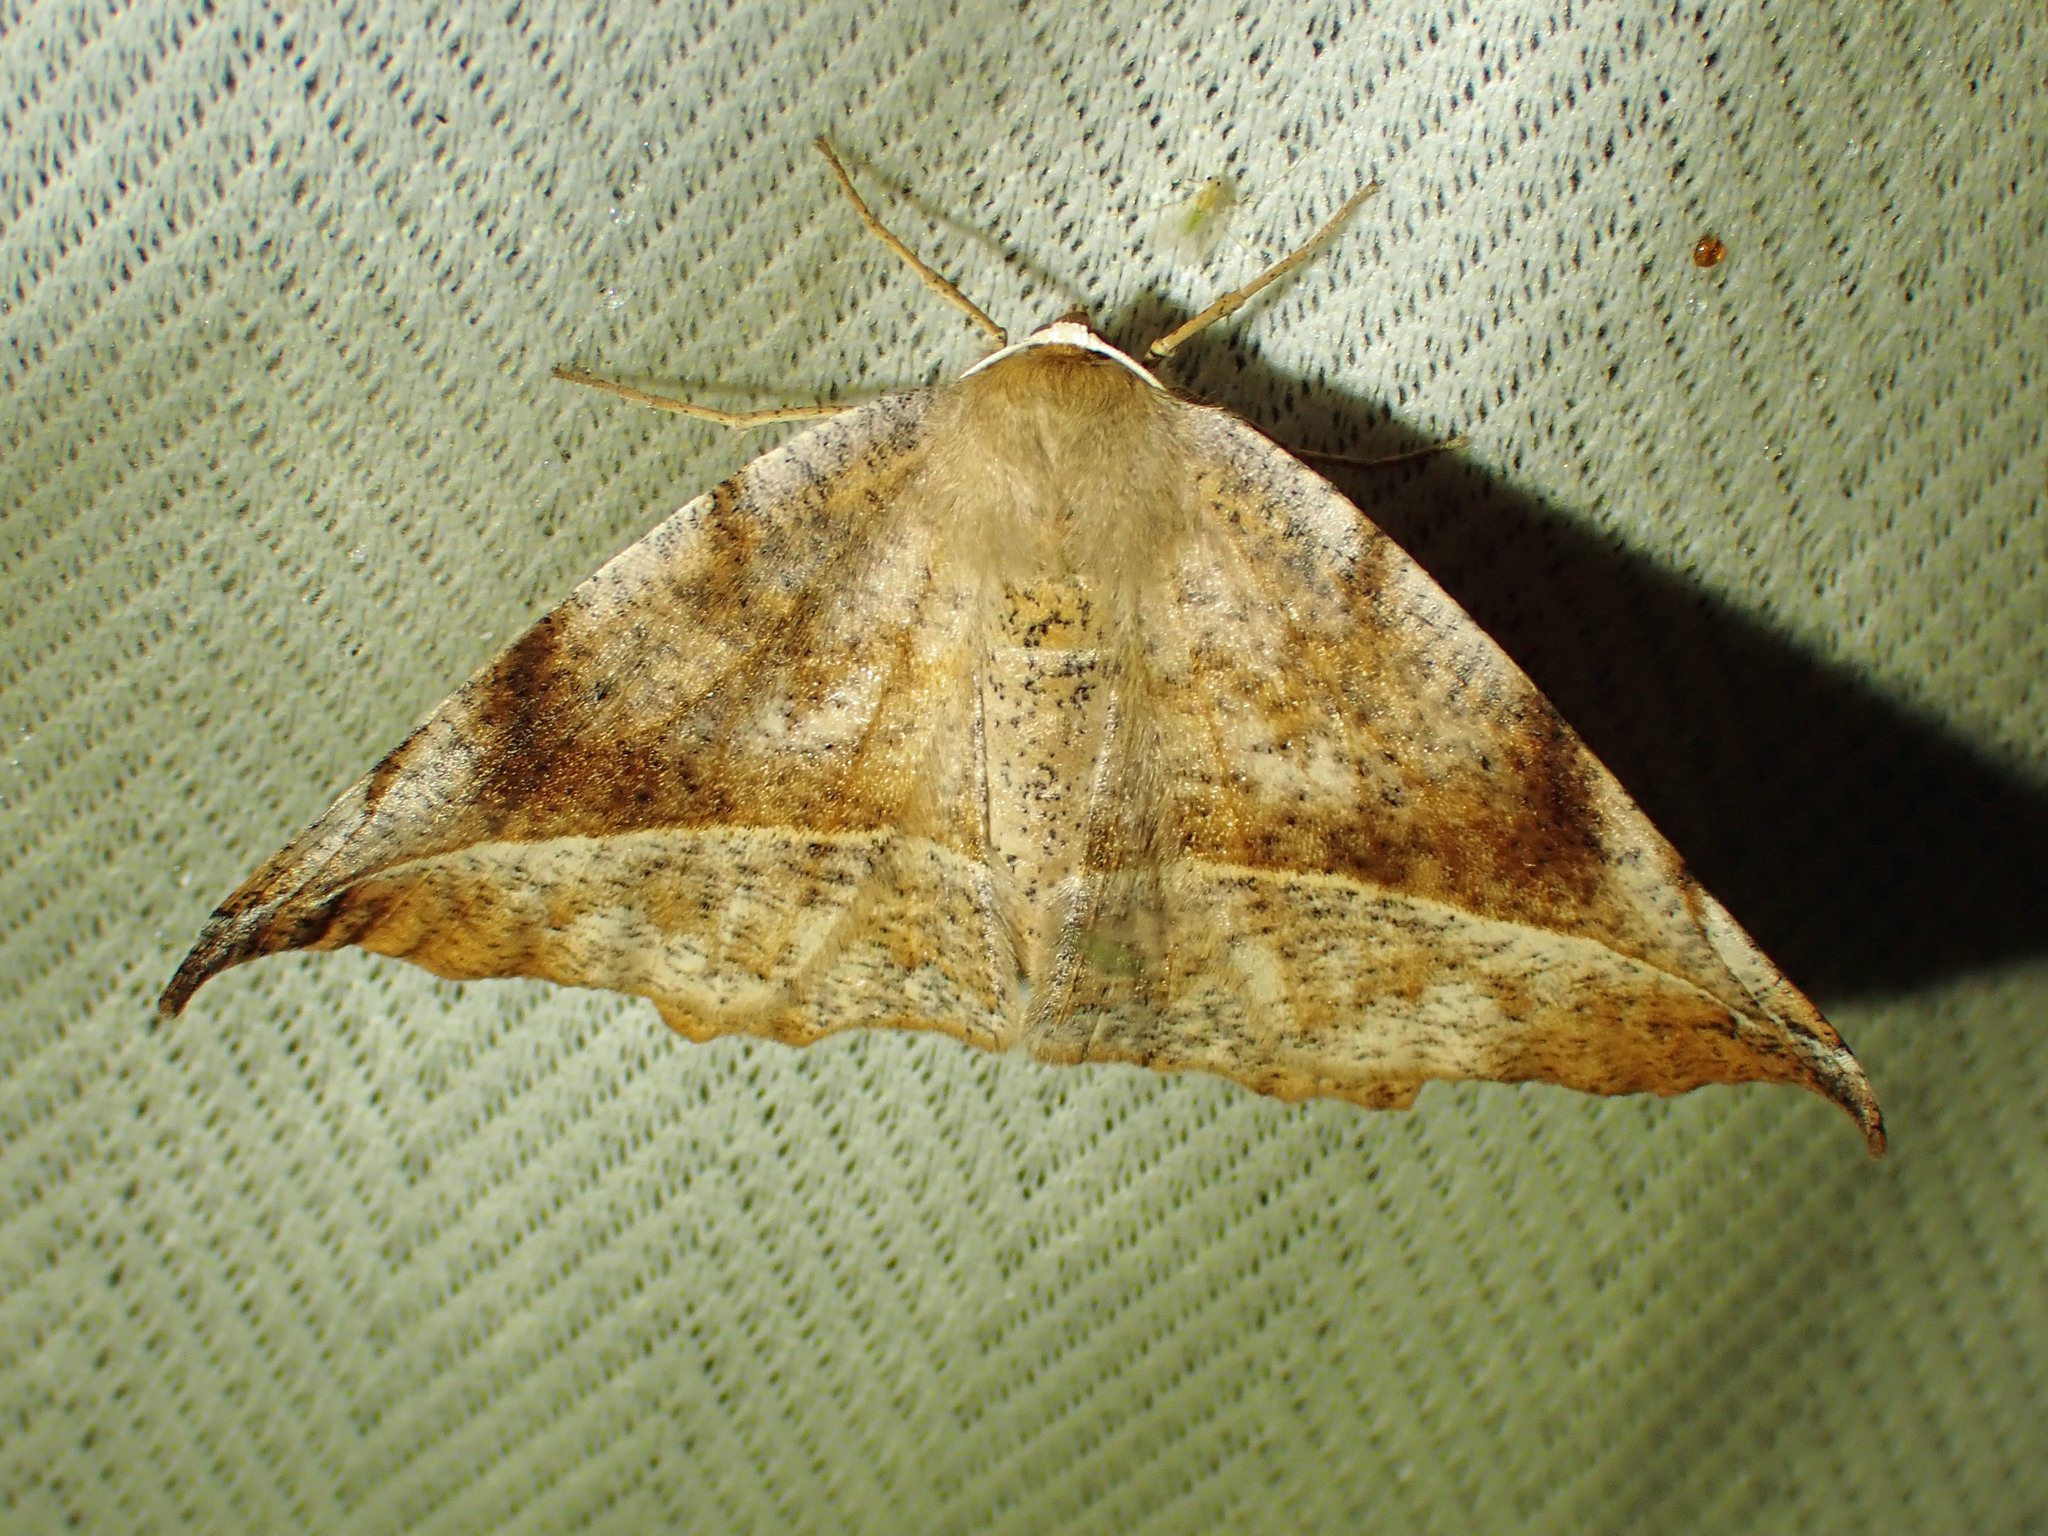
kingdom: Animalia
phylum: Arthropoda
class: Insecta
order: Lepidoptera
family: Geometridae
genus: Eutrapela
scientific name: Eutrapela clemataria
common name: Curved-toothed geometer
